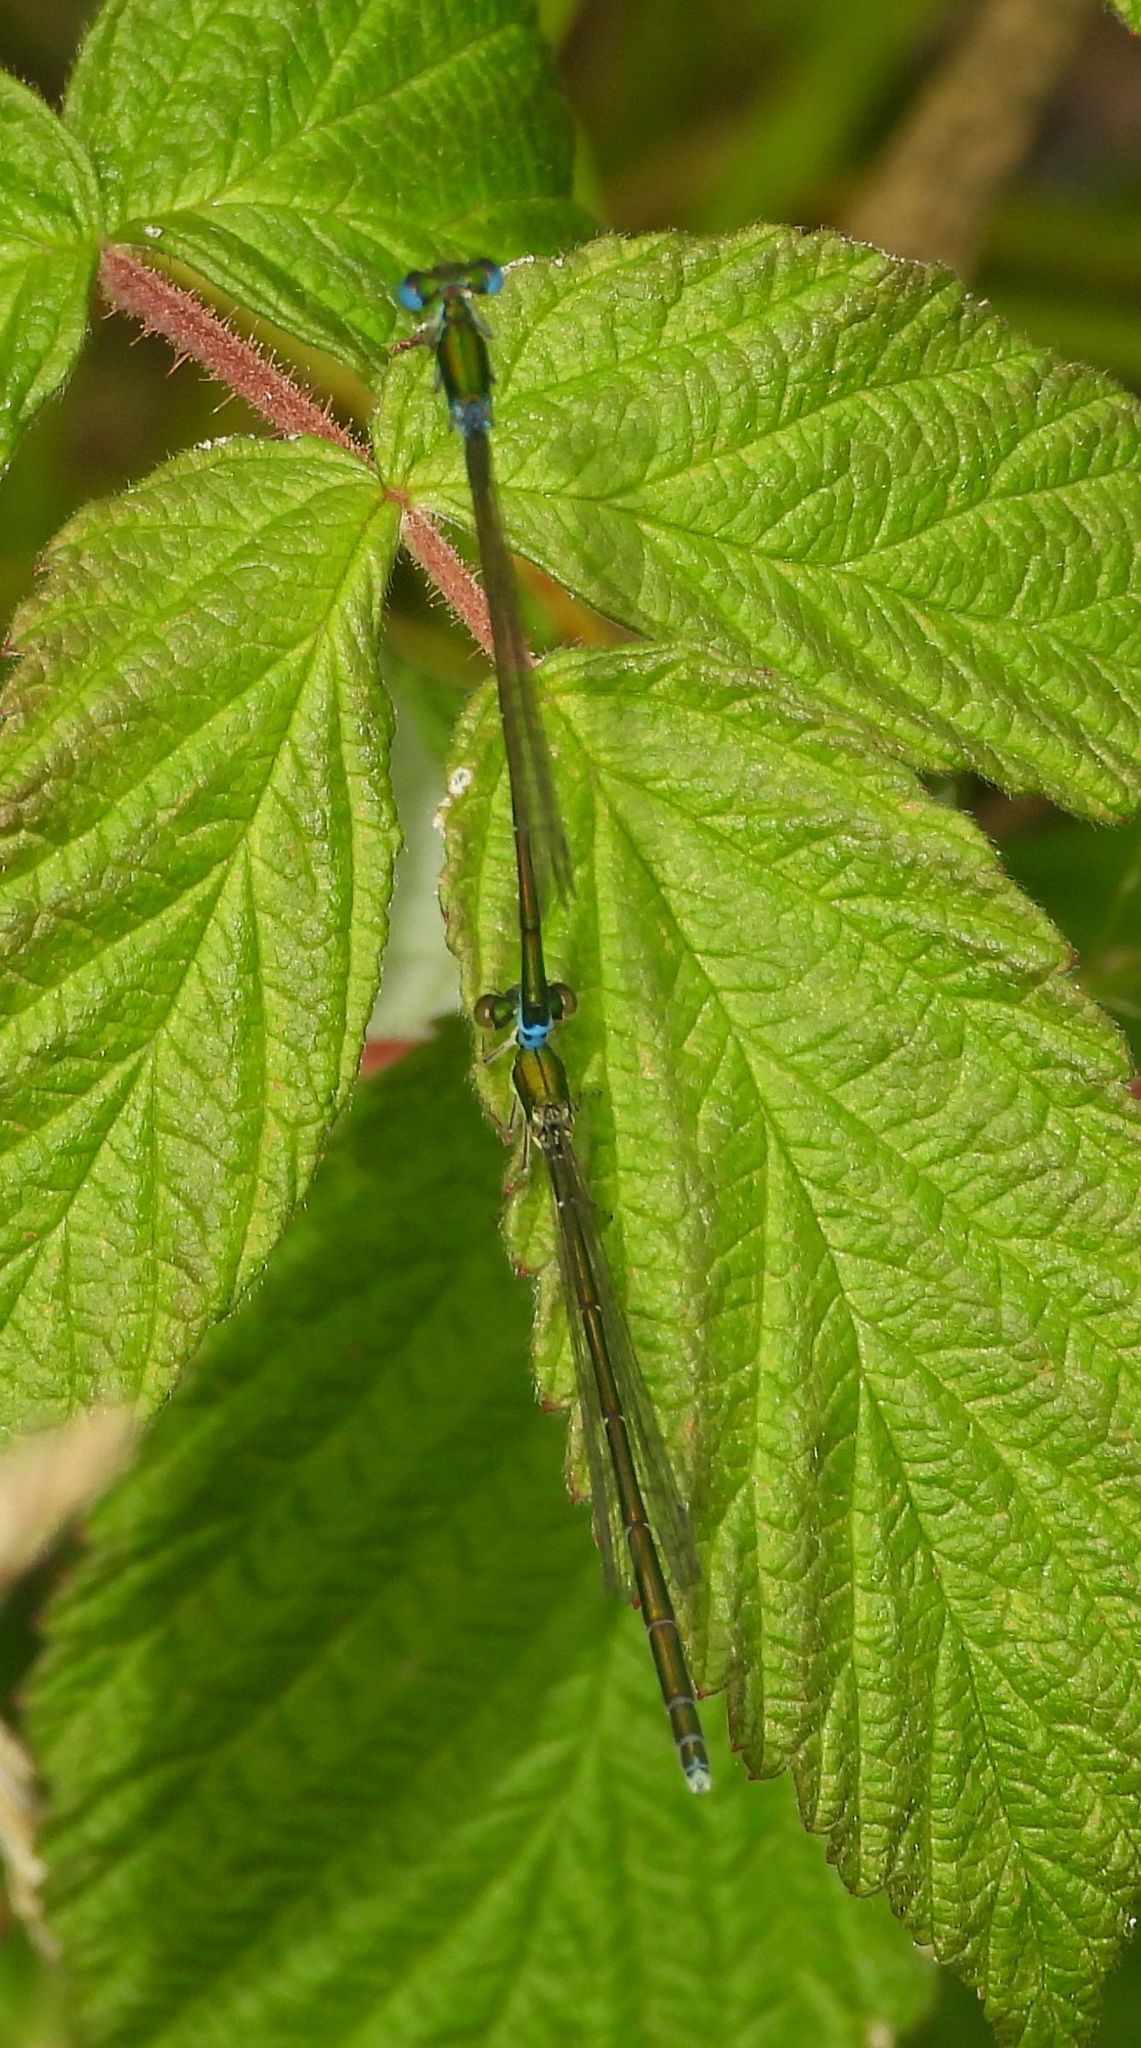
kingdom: Animalia
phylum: Arthropoda
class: Insecta
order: Odonata
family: Coenagrionidae
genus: Nehalennia
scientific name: Nehalennia irene
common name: Sedge sprite
